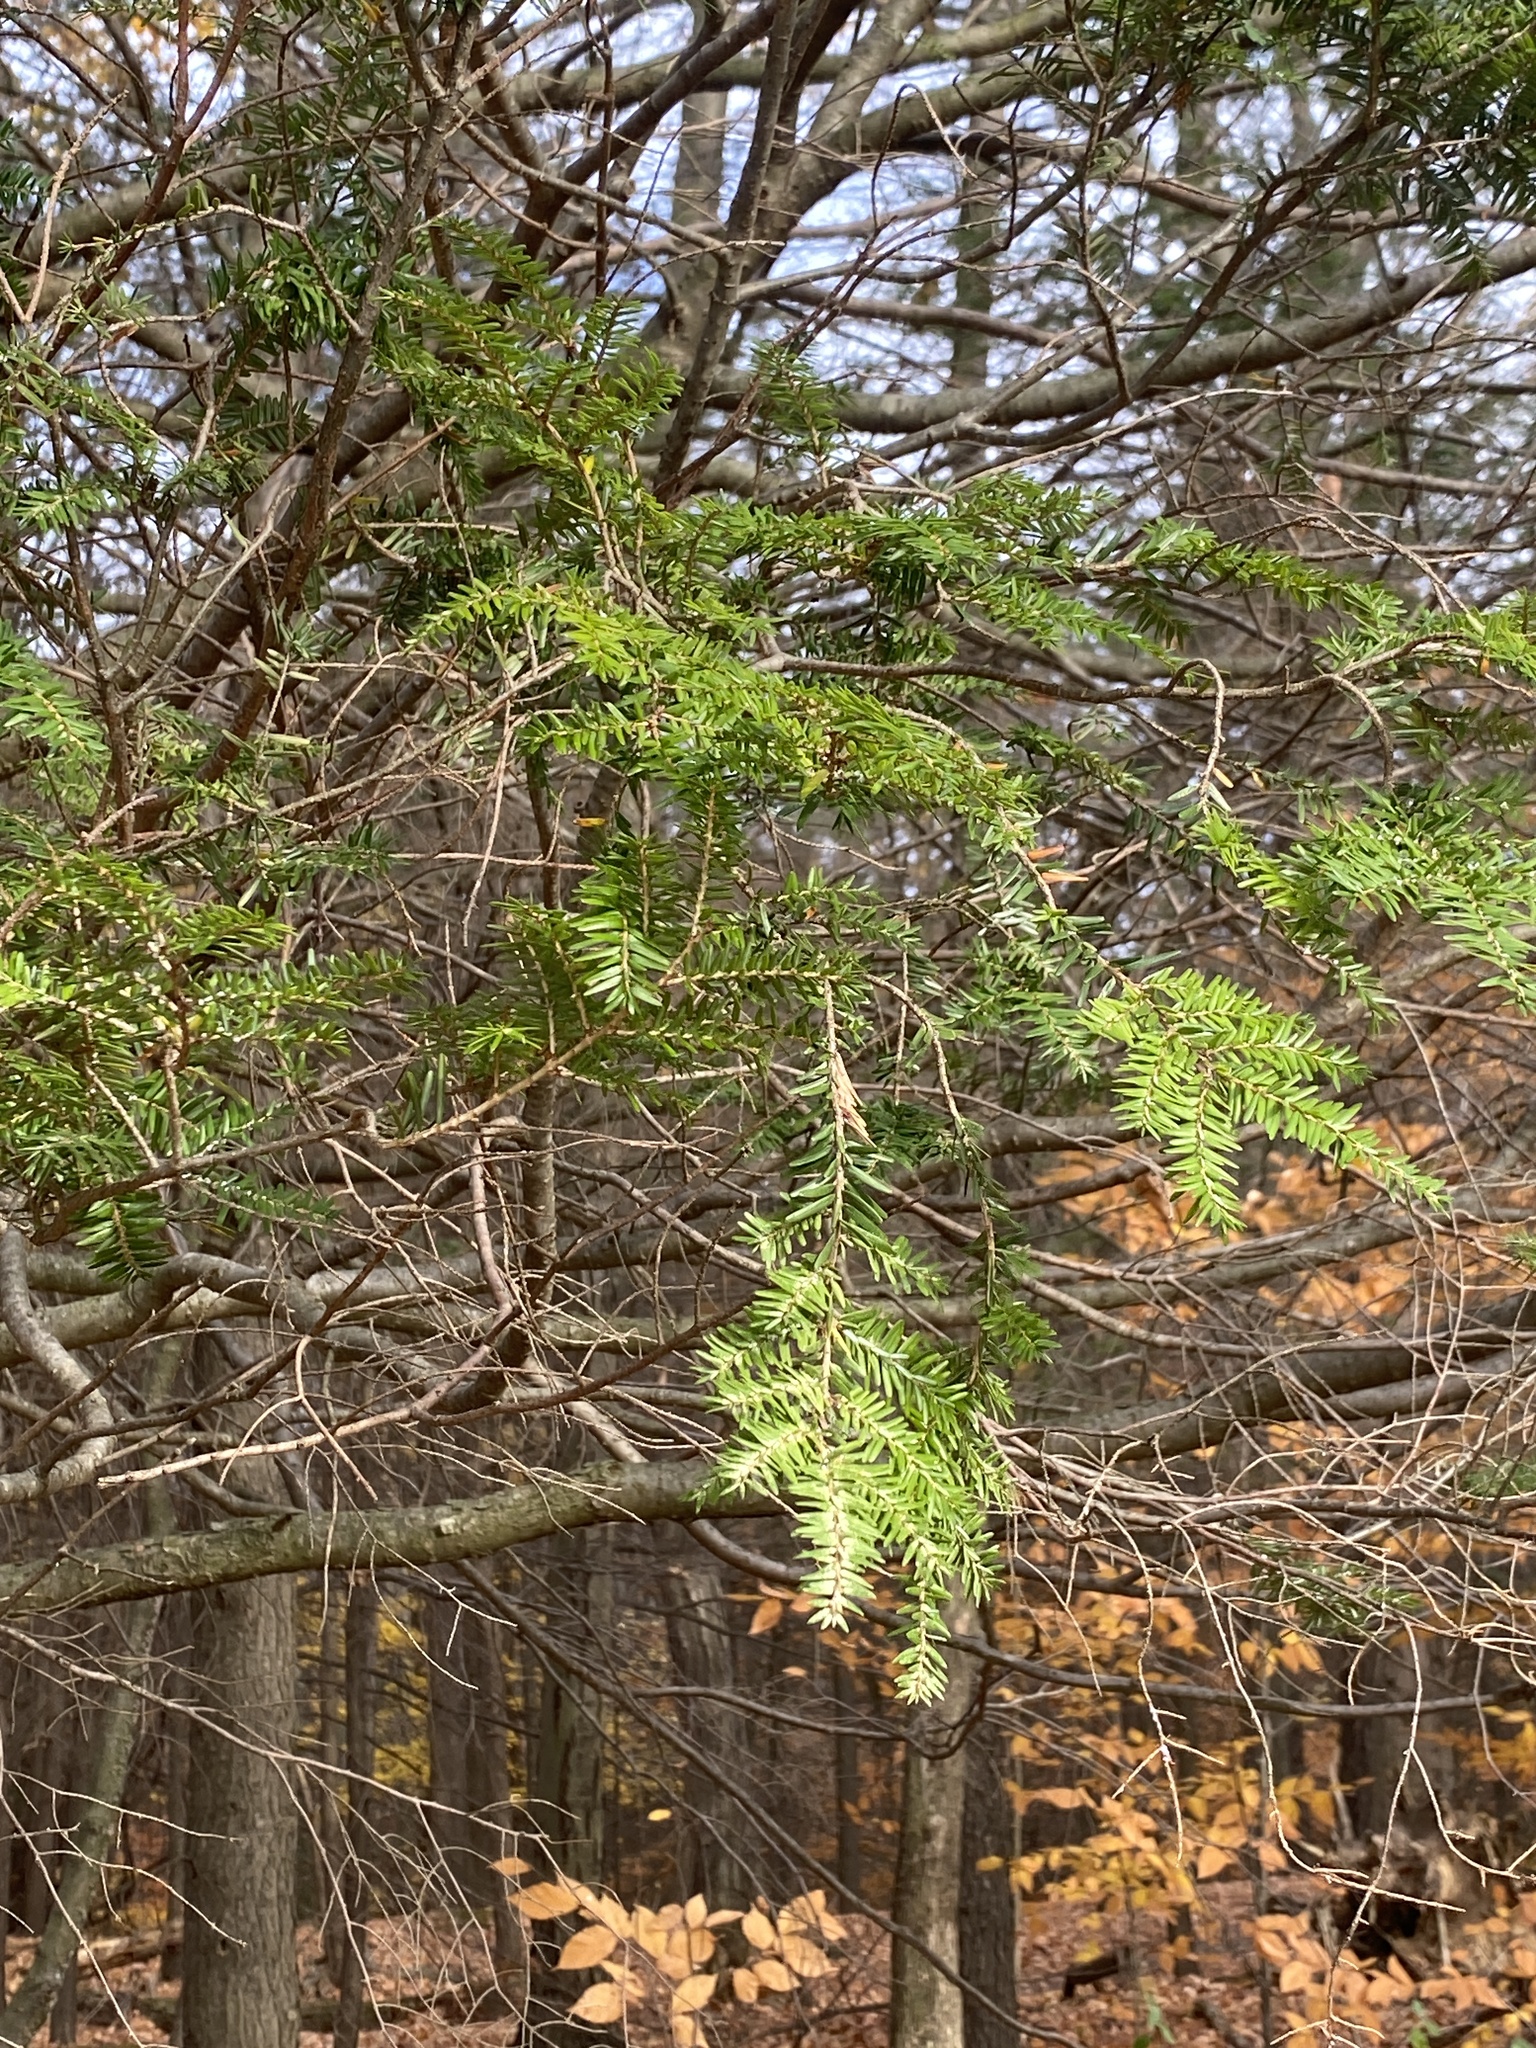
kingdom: Plantae
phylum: Tracheophyta
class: Pinopsida
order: Pinales
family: Pinaceae
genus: Tsuga
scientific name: Tsuga canadensis
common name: Eastern hemlock
